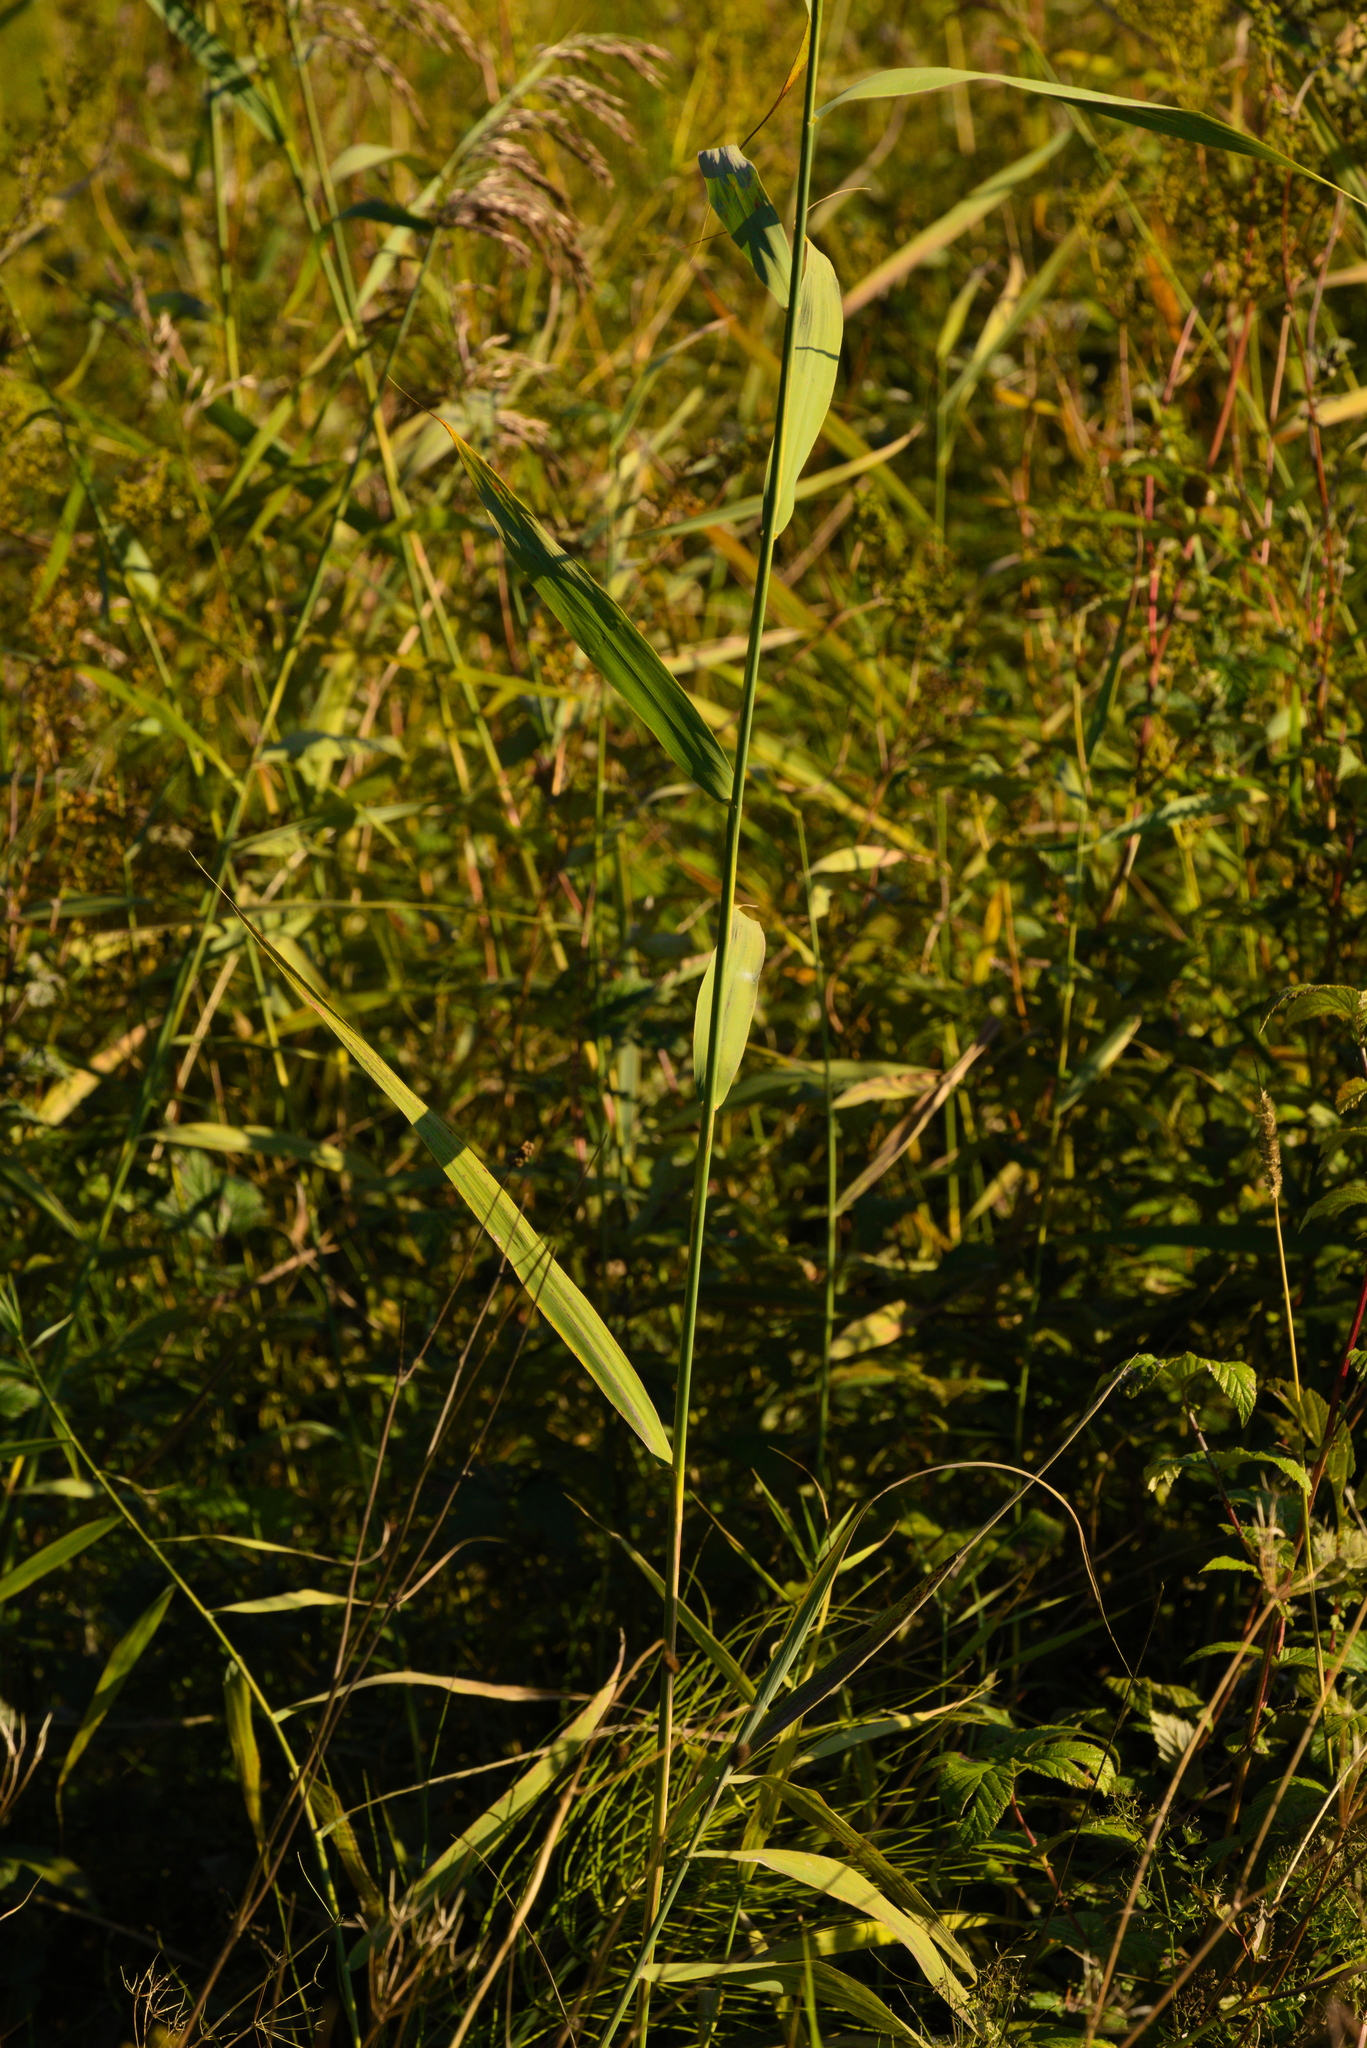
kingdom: Plantae
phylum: Tracheophyta
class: Liliopsida
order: Poales
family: Poaceae
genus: Phragmites
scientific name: Phragmites australis
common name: Common reed
